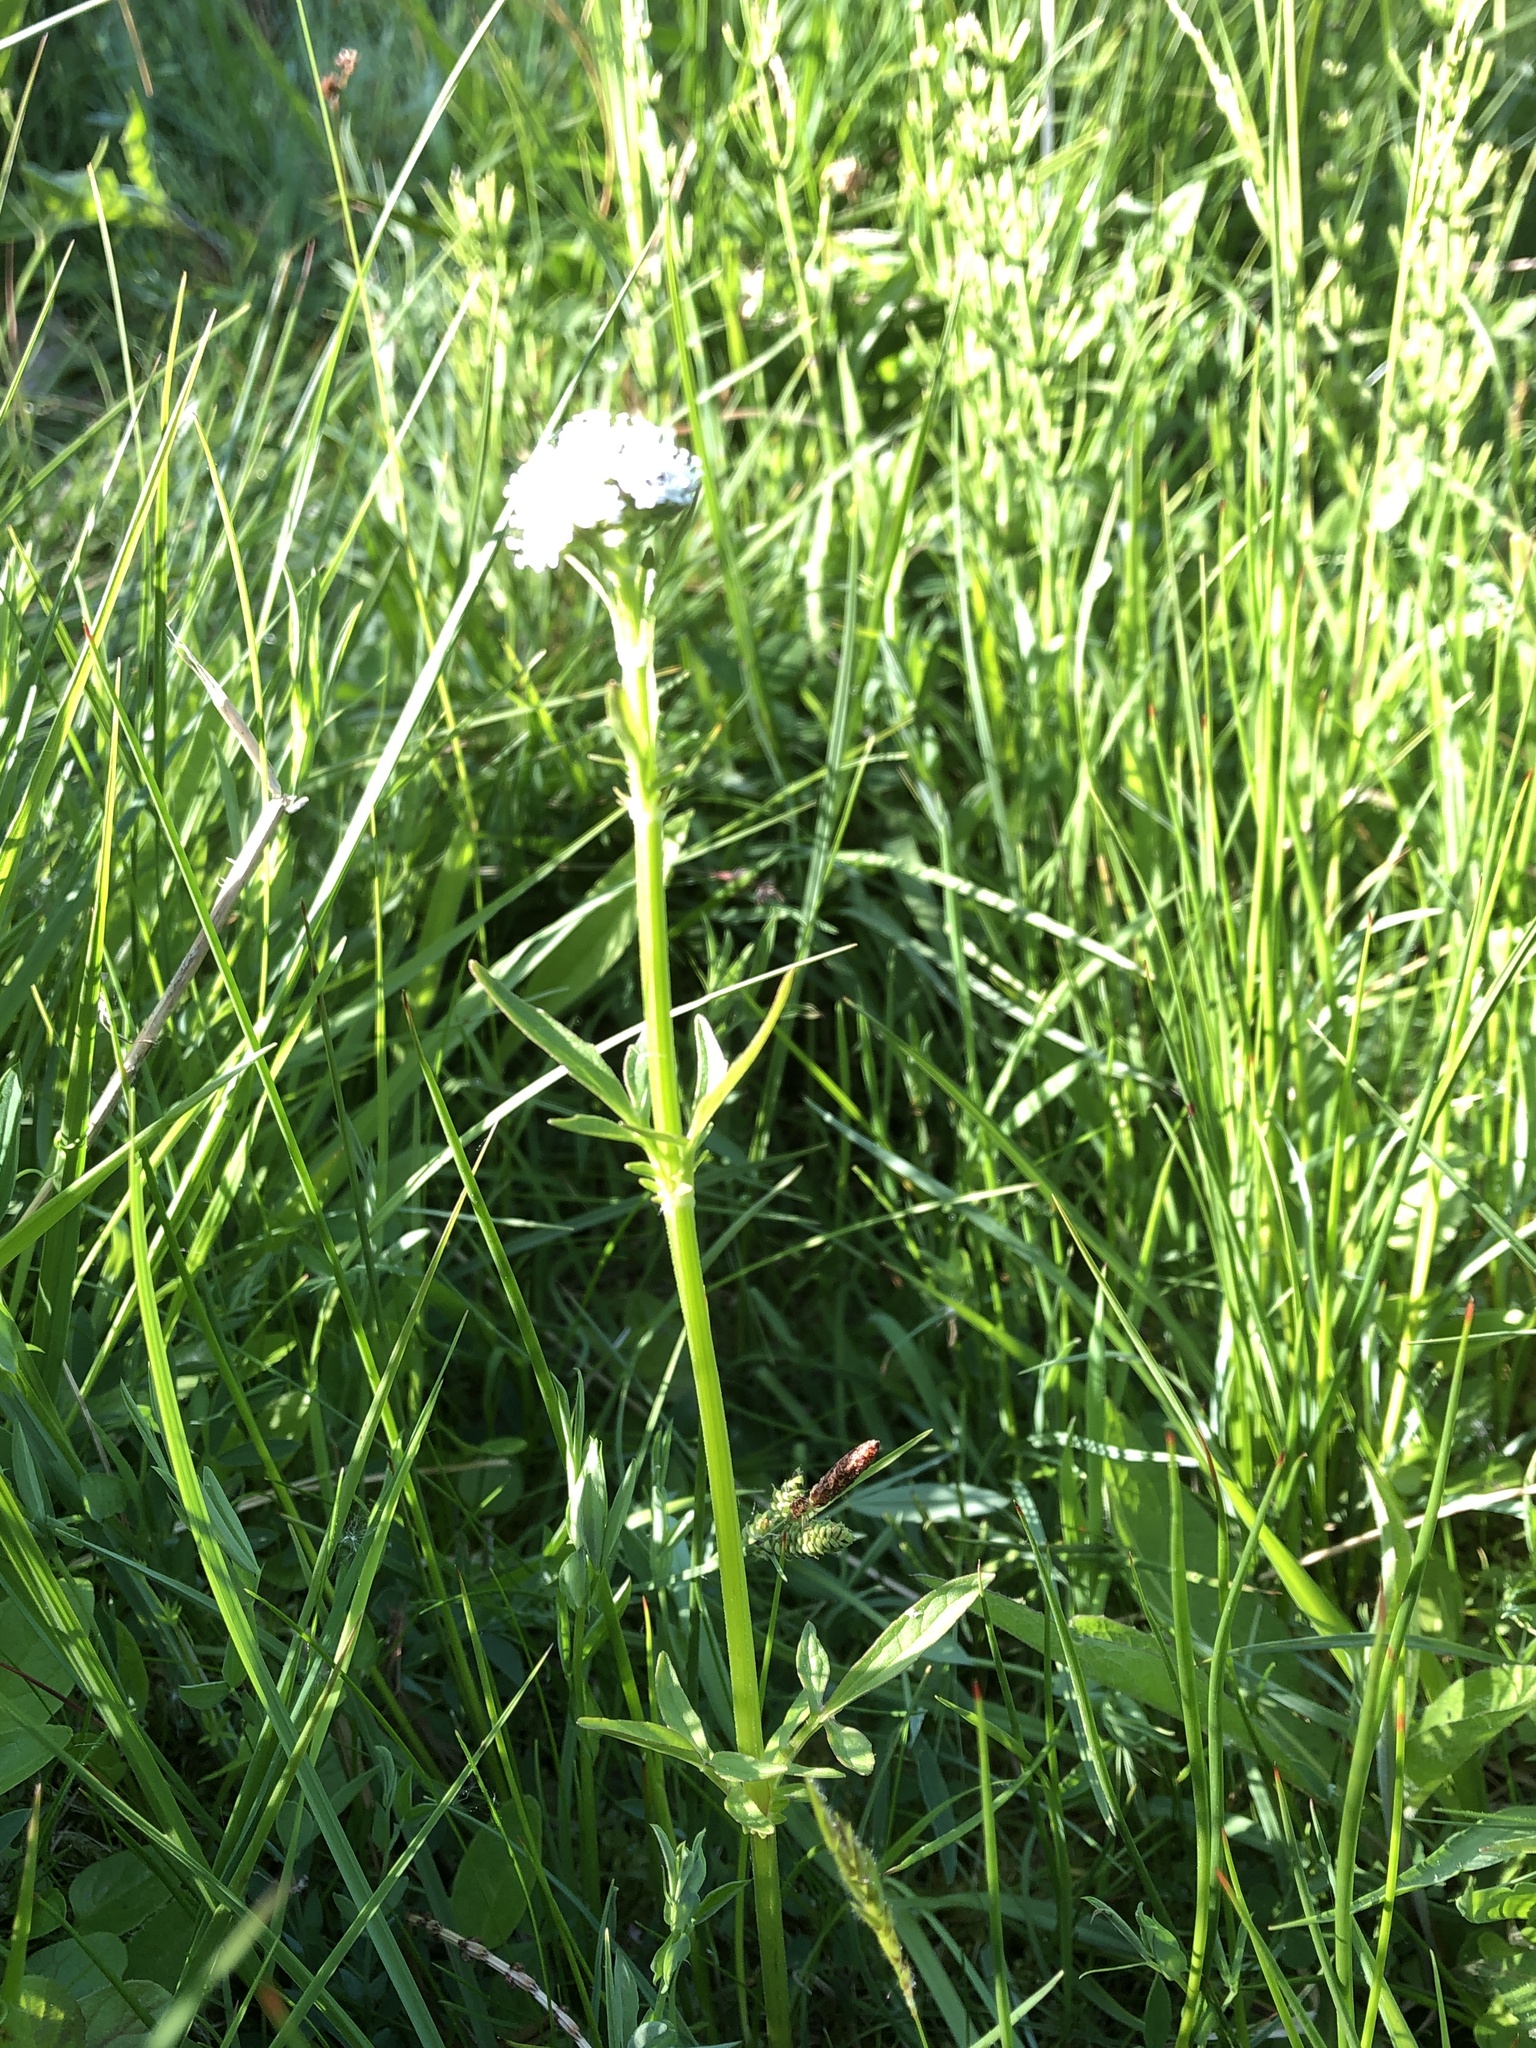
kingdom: Plantae
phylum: Tracheophyta
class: Magnoliopsida
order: Dipsacales
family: Caprifoliaceae
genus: Valeriana
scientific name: Valeriana dioica
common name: Marsh valerian
